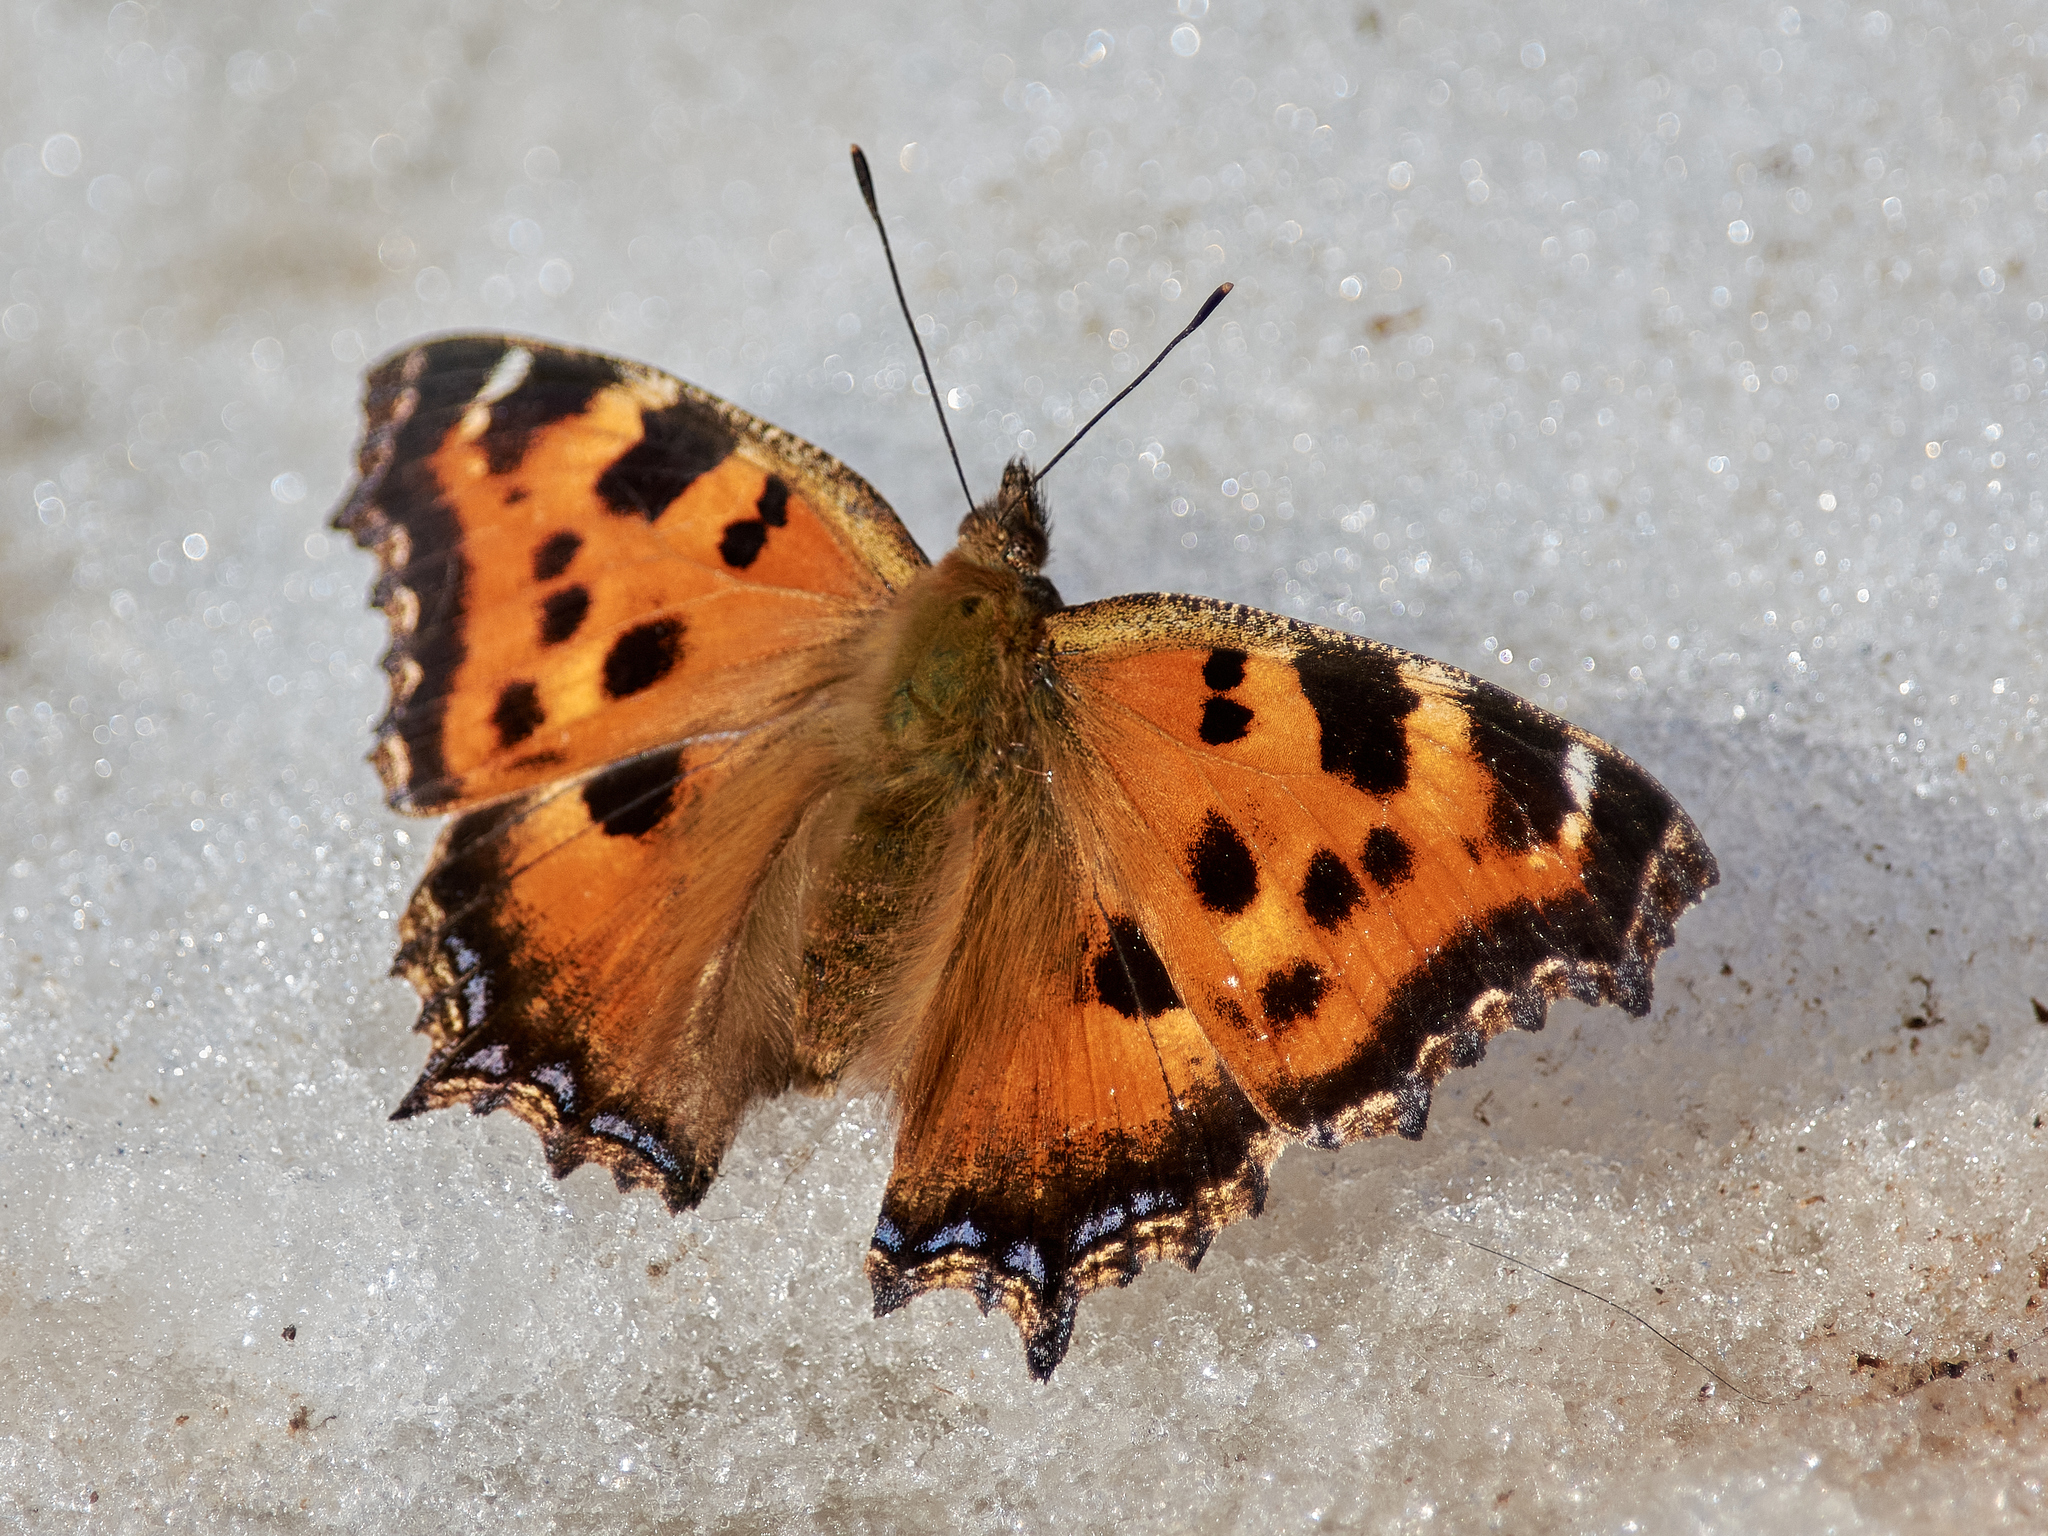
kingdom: Animalia
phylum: Arthropoda
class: Insecta
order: Lepidoptera
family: Nymphalidae
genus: Nymphalis
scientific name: Nymphalis xanthomelas
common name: Scarce tortoiseshell
